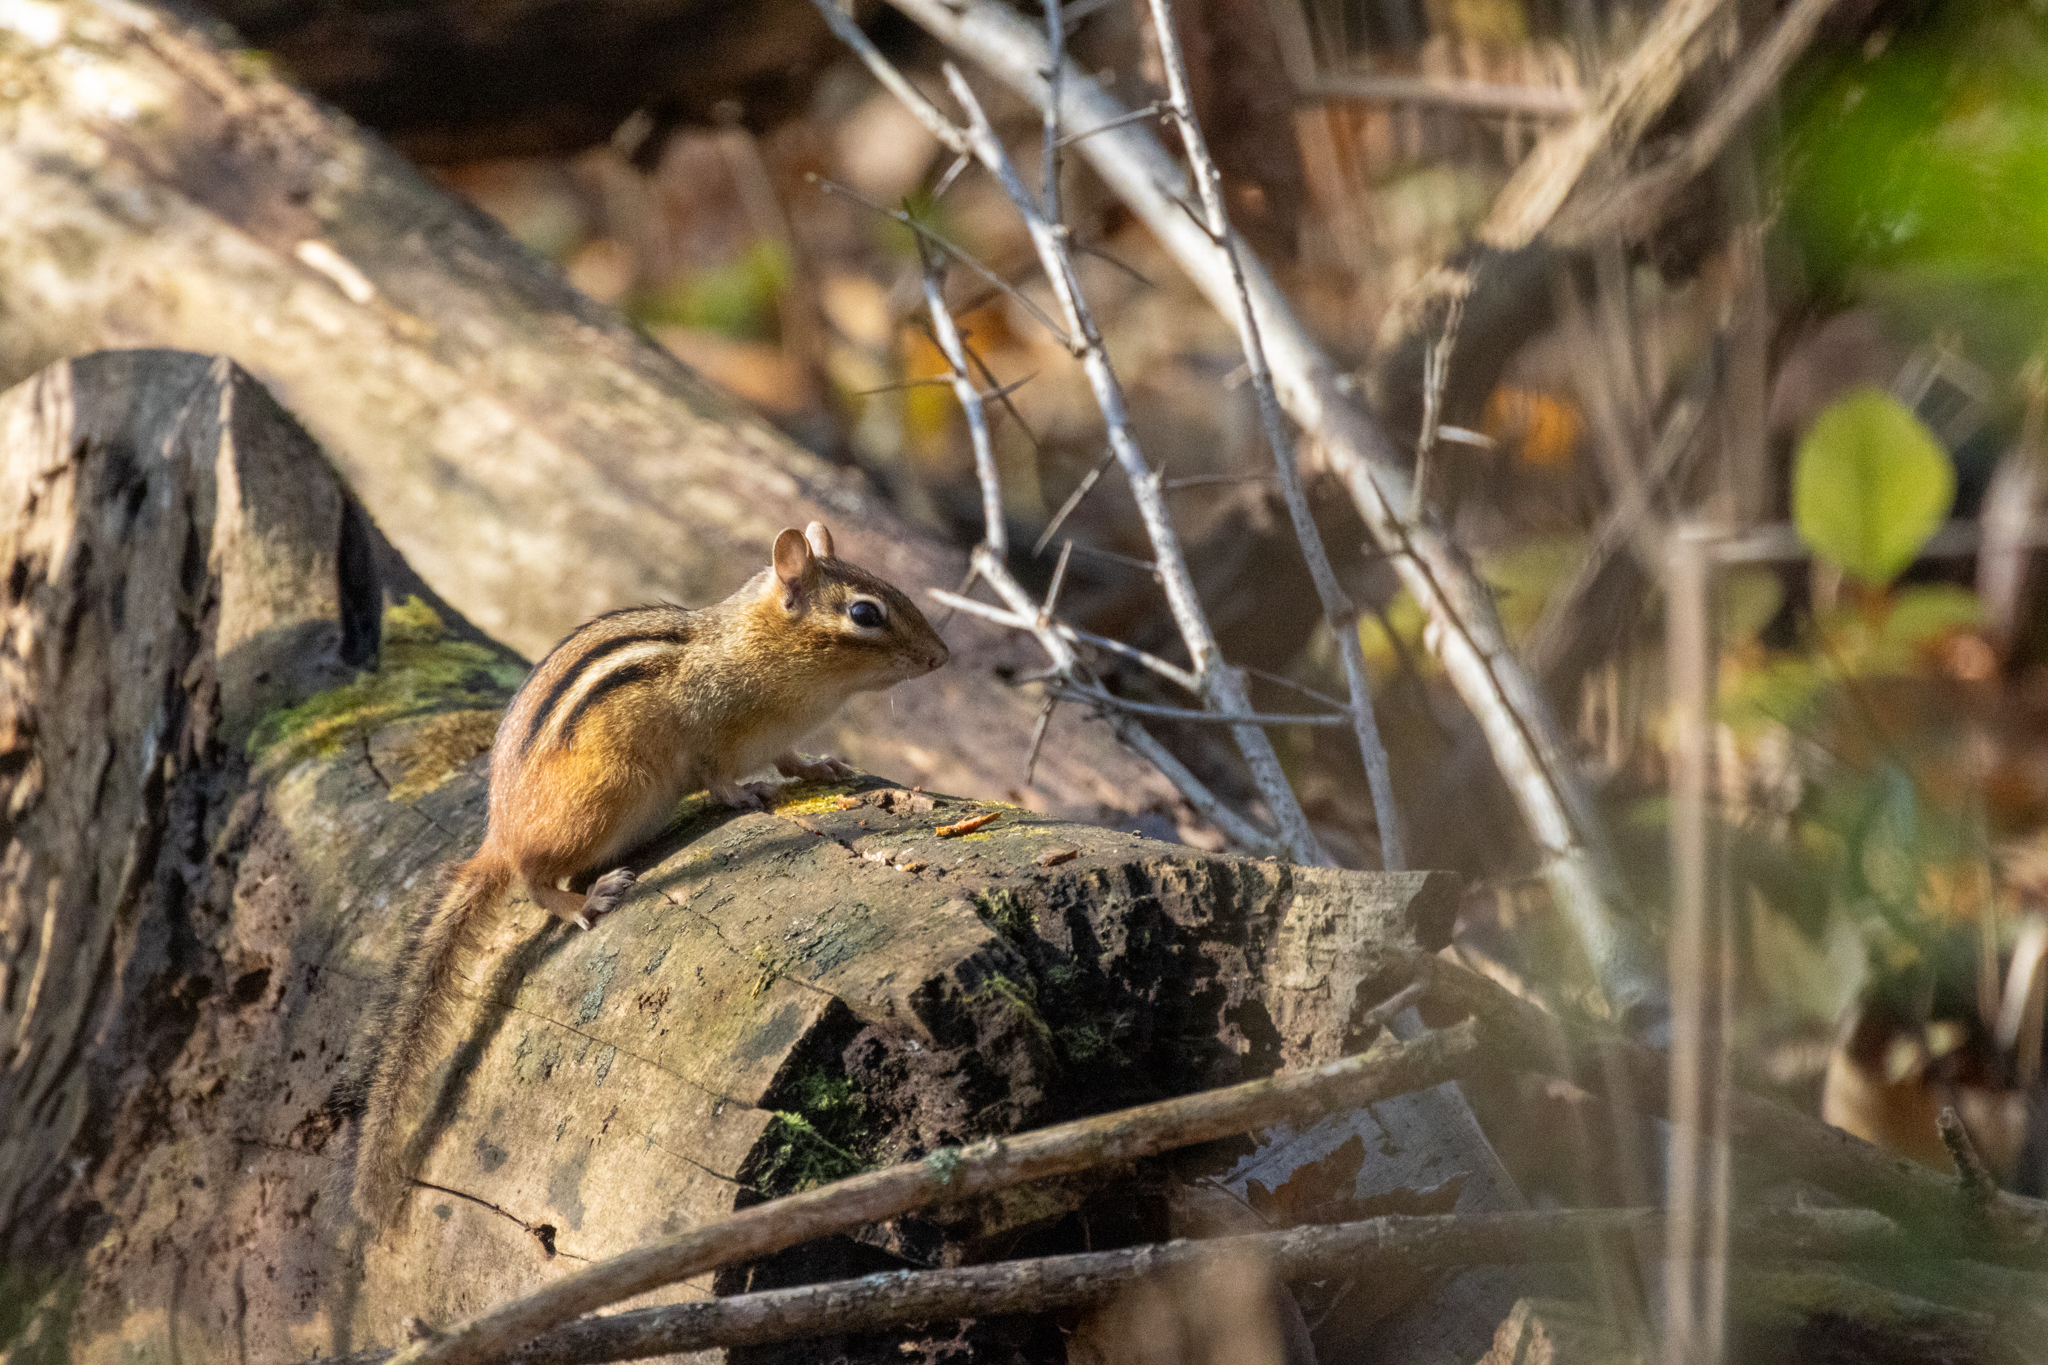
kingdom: Animalia
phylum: Chordata
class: Mammalia
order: Rodentia
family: Sciuridae
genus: Tamias
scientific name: Tamias striatus
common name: Eastern chipmunk
